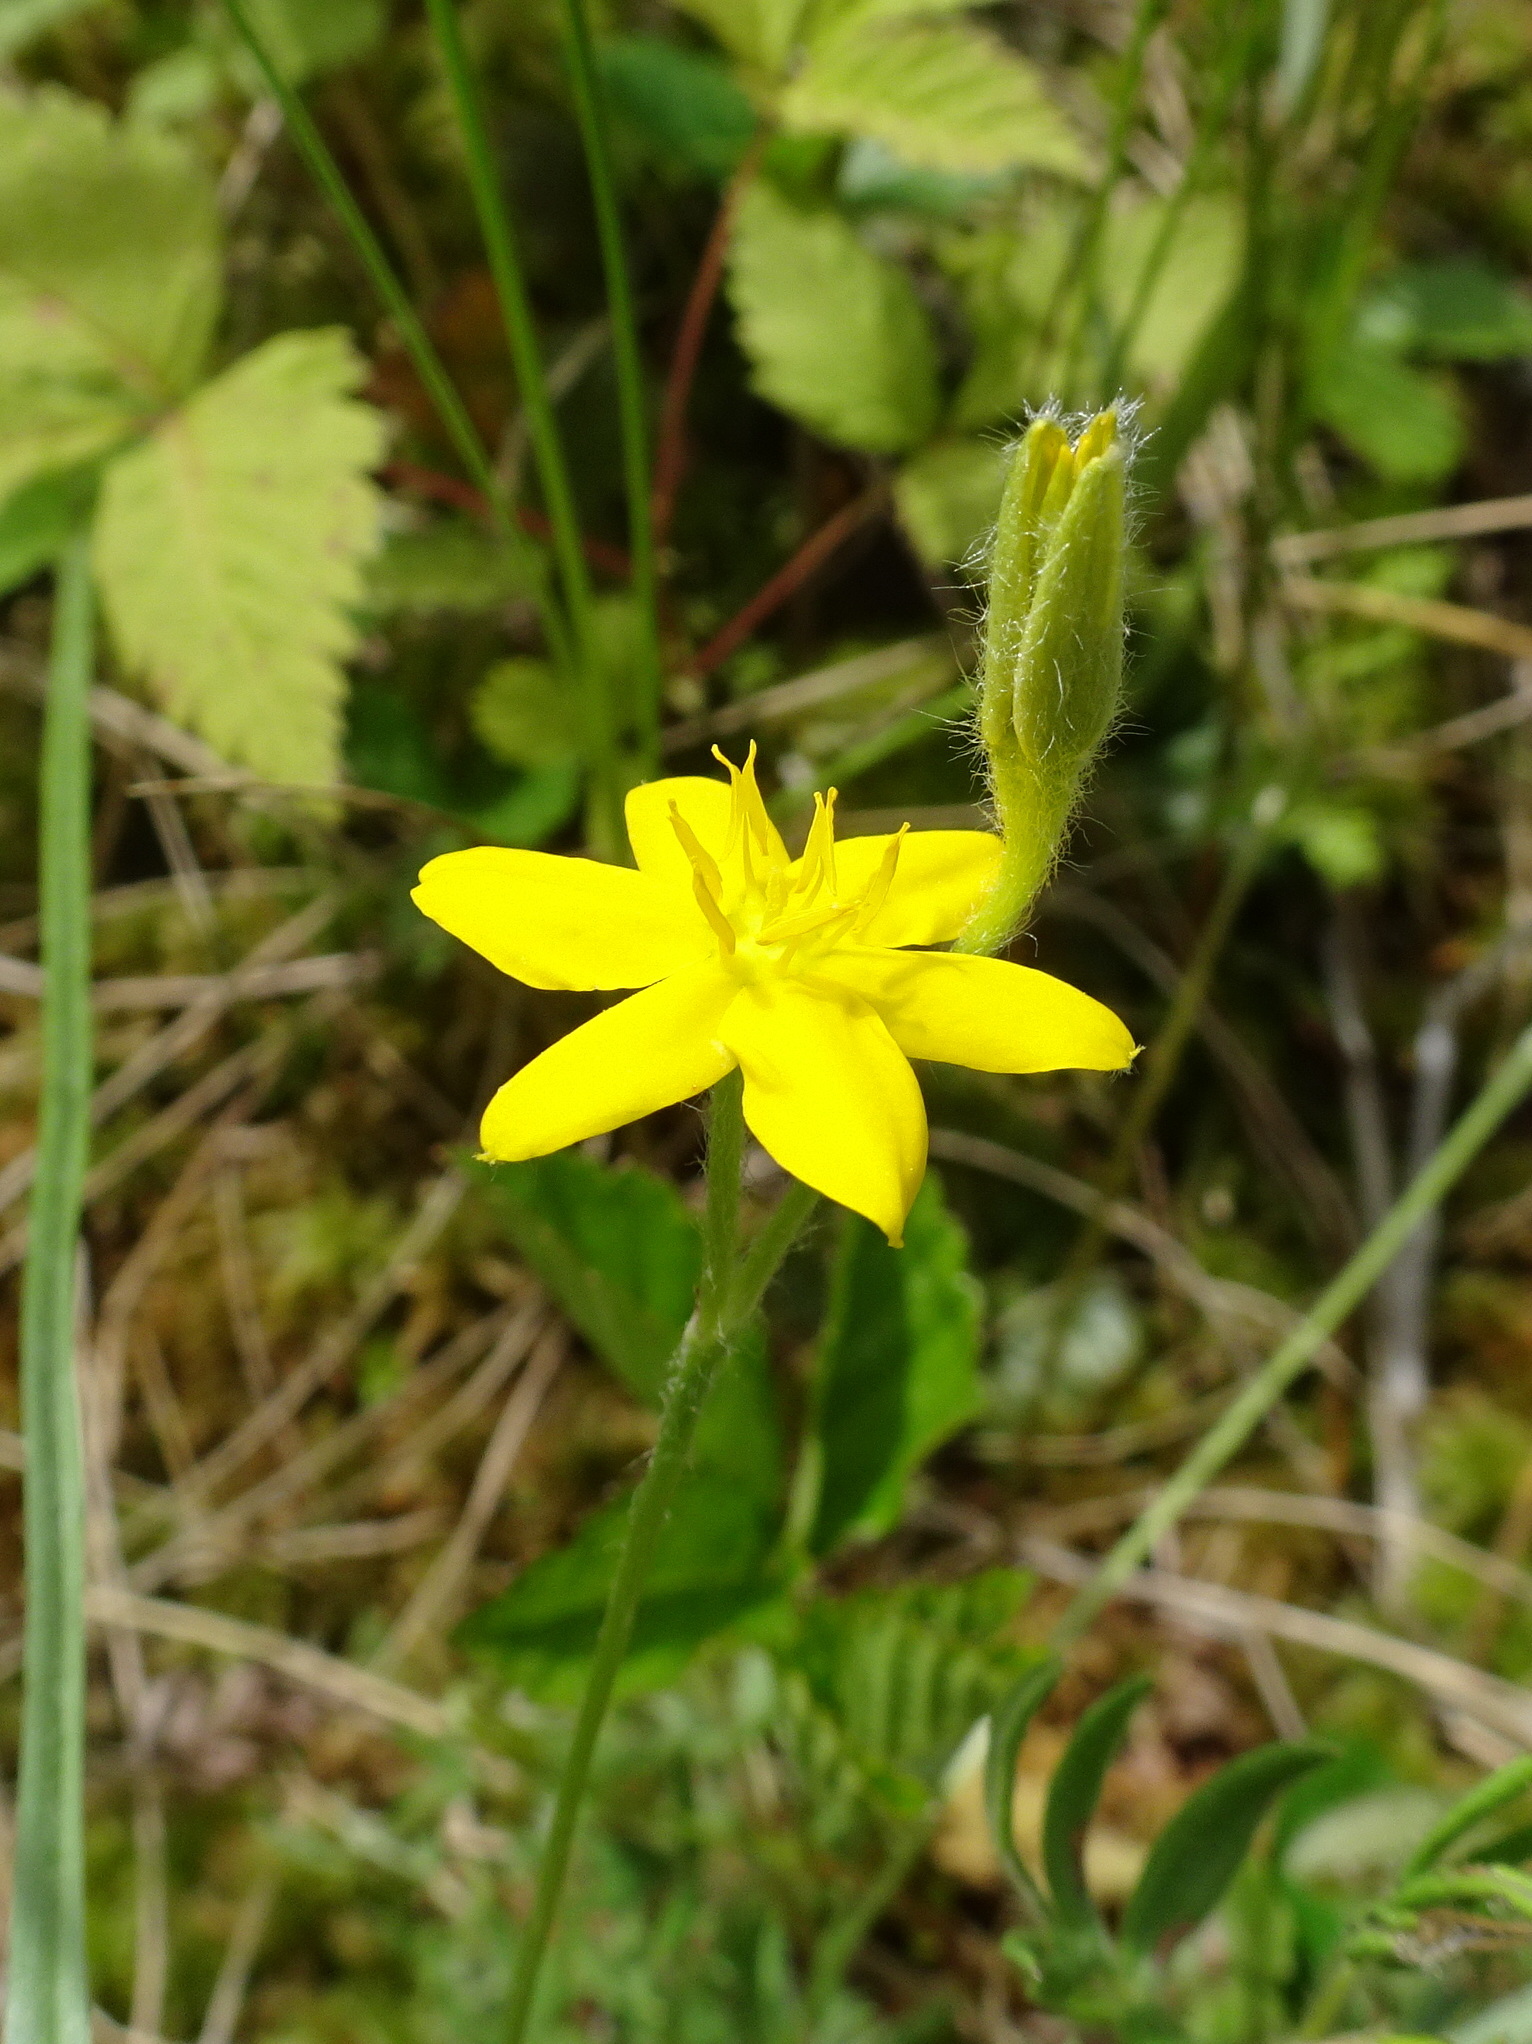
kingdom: Plantae
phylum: Tracheophyta
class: Liliopsida
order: Asparagales
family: Hypoxidaceae
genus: Hypoxis
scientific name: Hypoxis hirsuta
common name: Common goldstar
